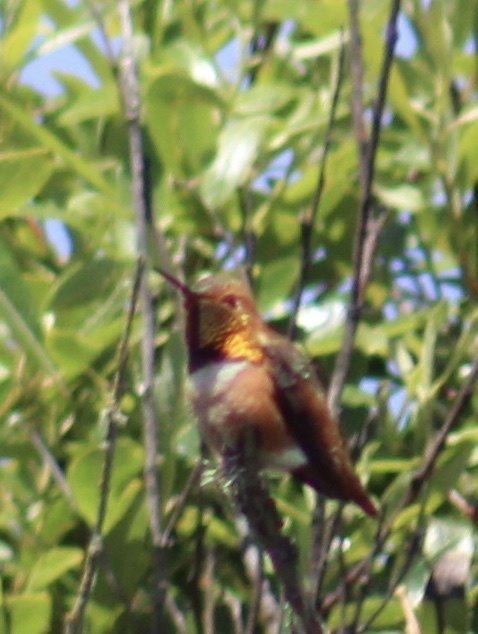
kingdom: Animalia
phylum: Chordata
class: Aves
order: Apodiformes
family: Trochilidae
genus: Selasphorus
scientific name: Selasphorus
